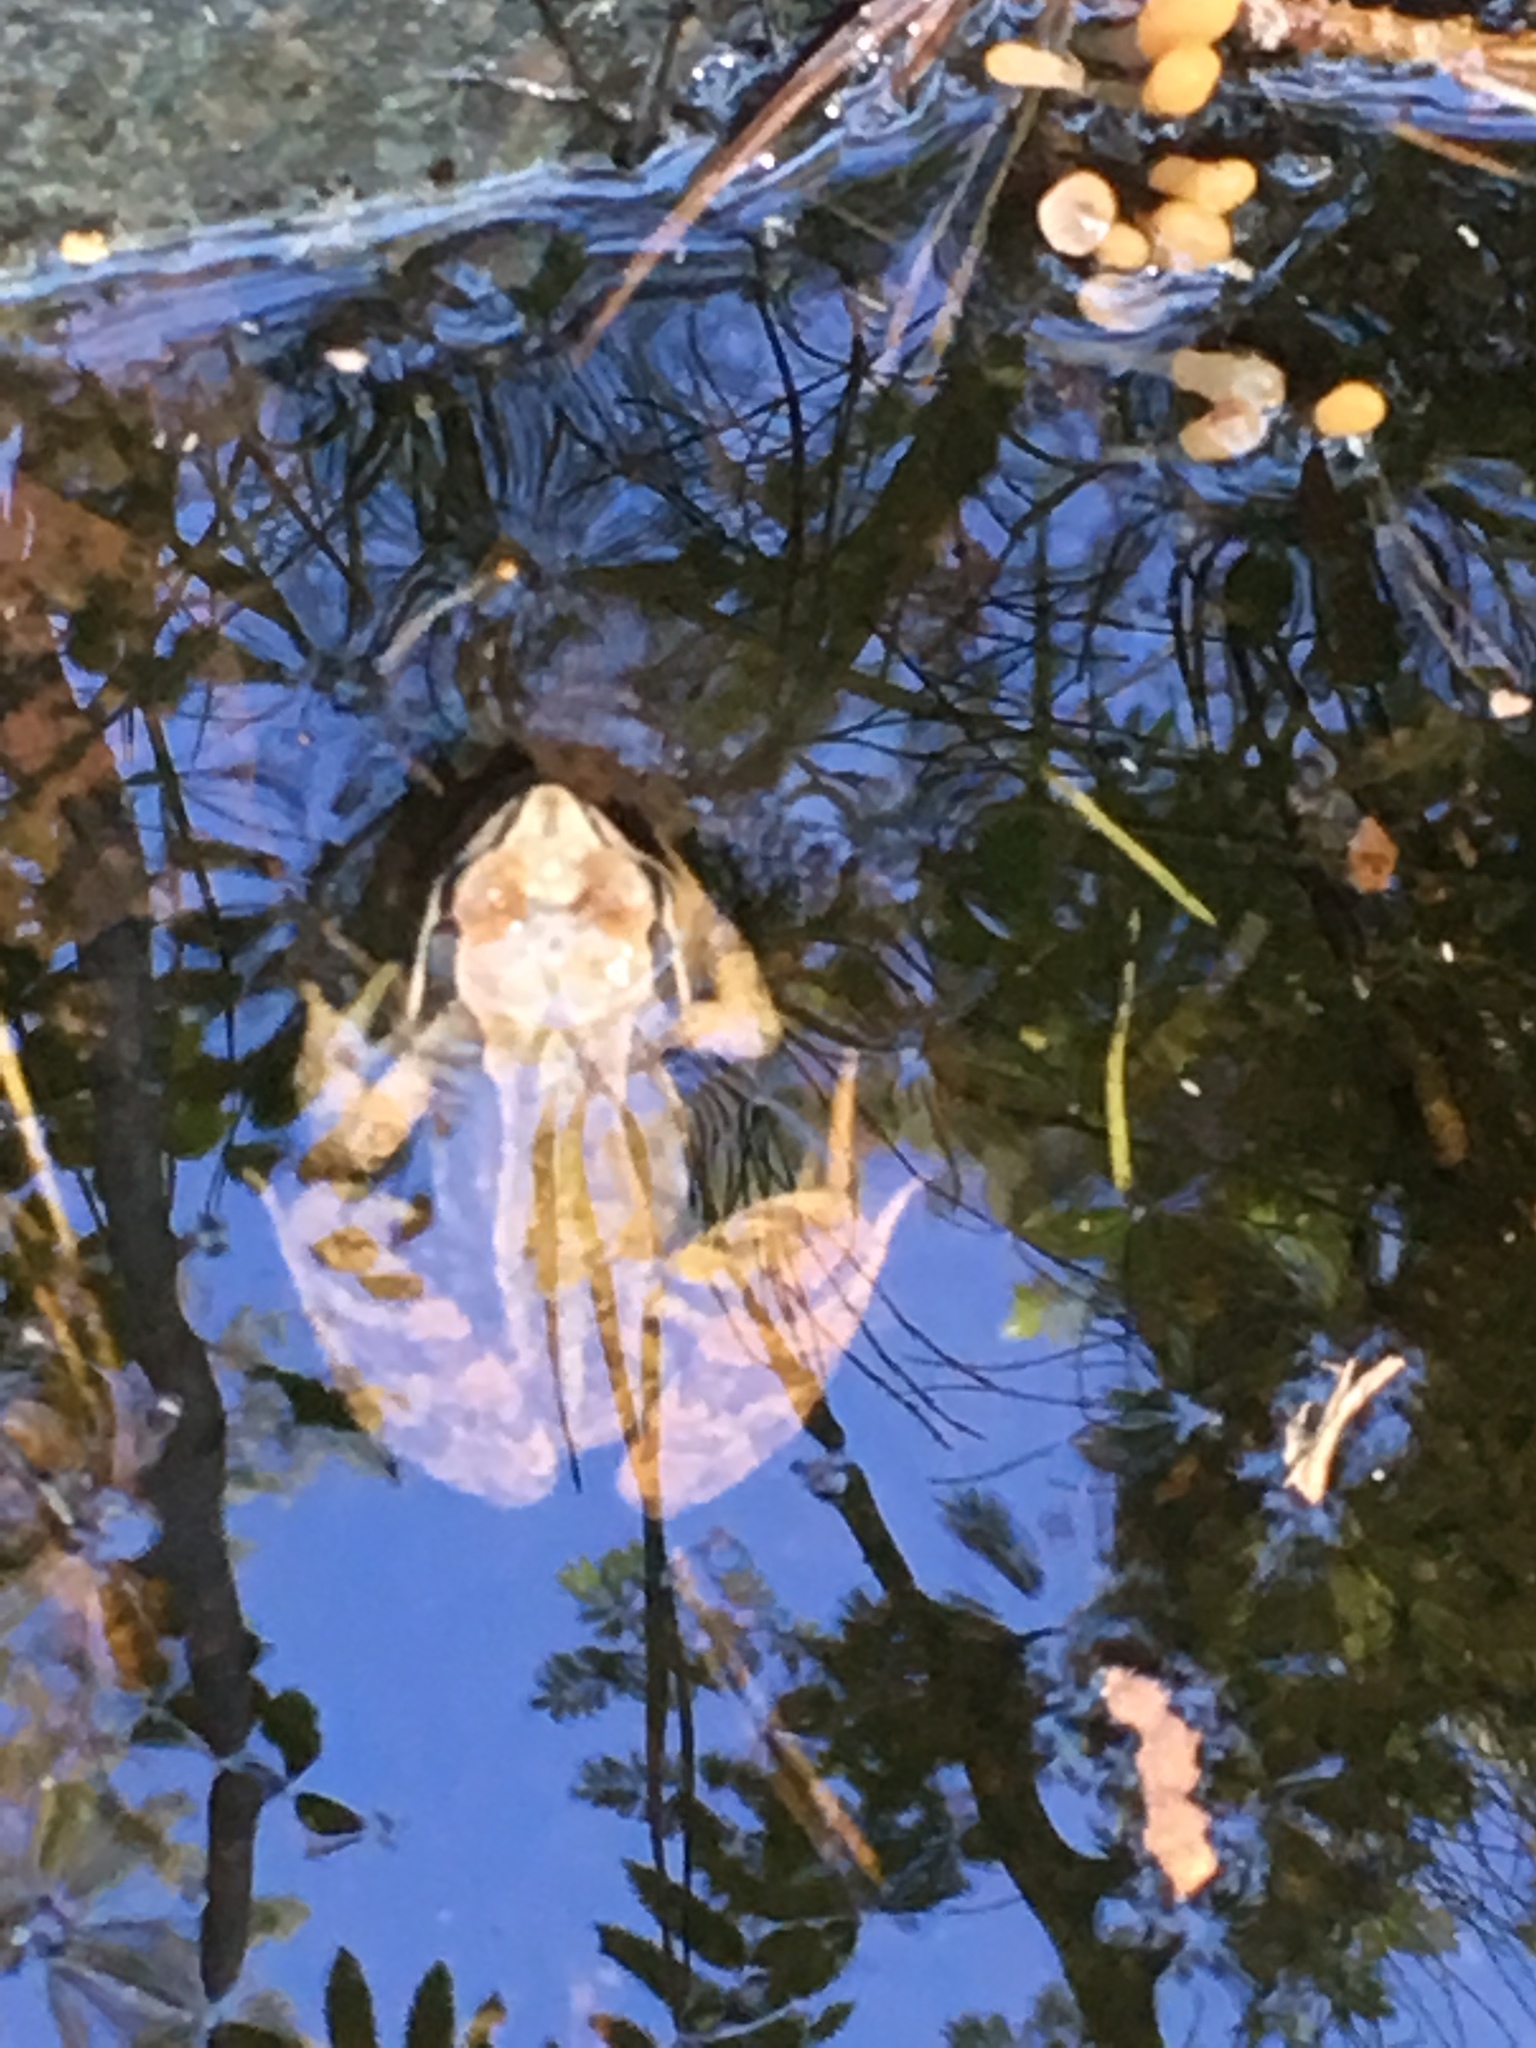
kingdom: Animalia
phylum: Chordata
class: Amphibia
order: Anura
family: Ranidae
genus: Rana
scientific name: Rana temporaria
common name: Common frog
